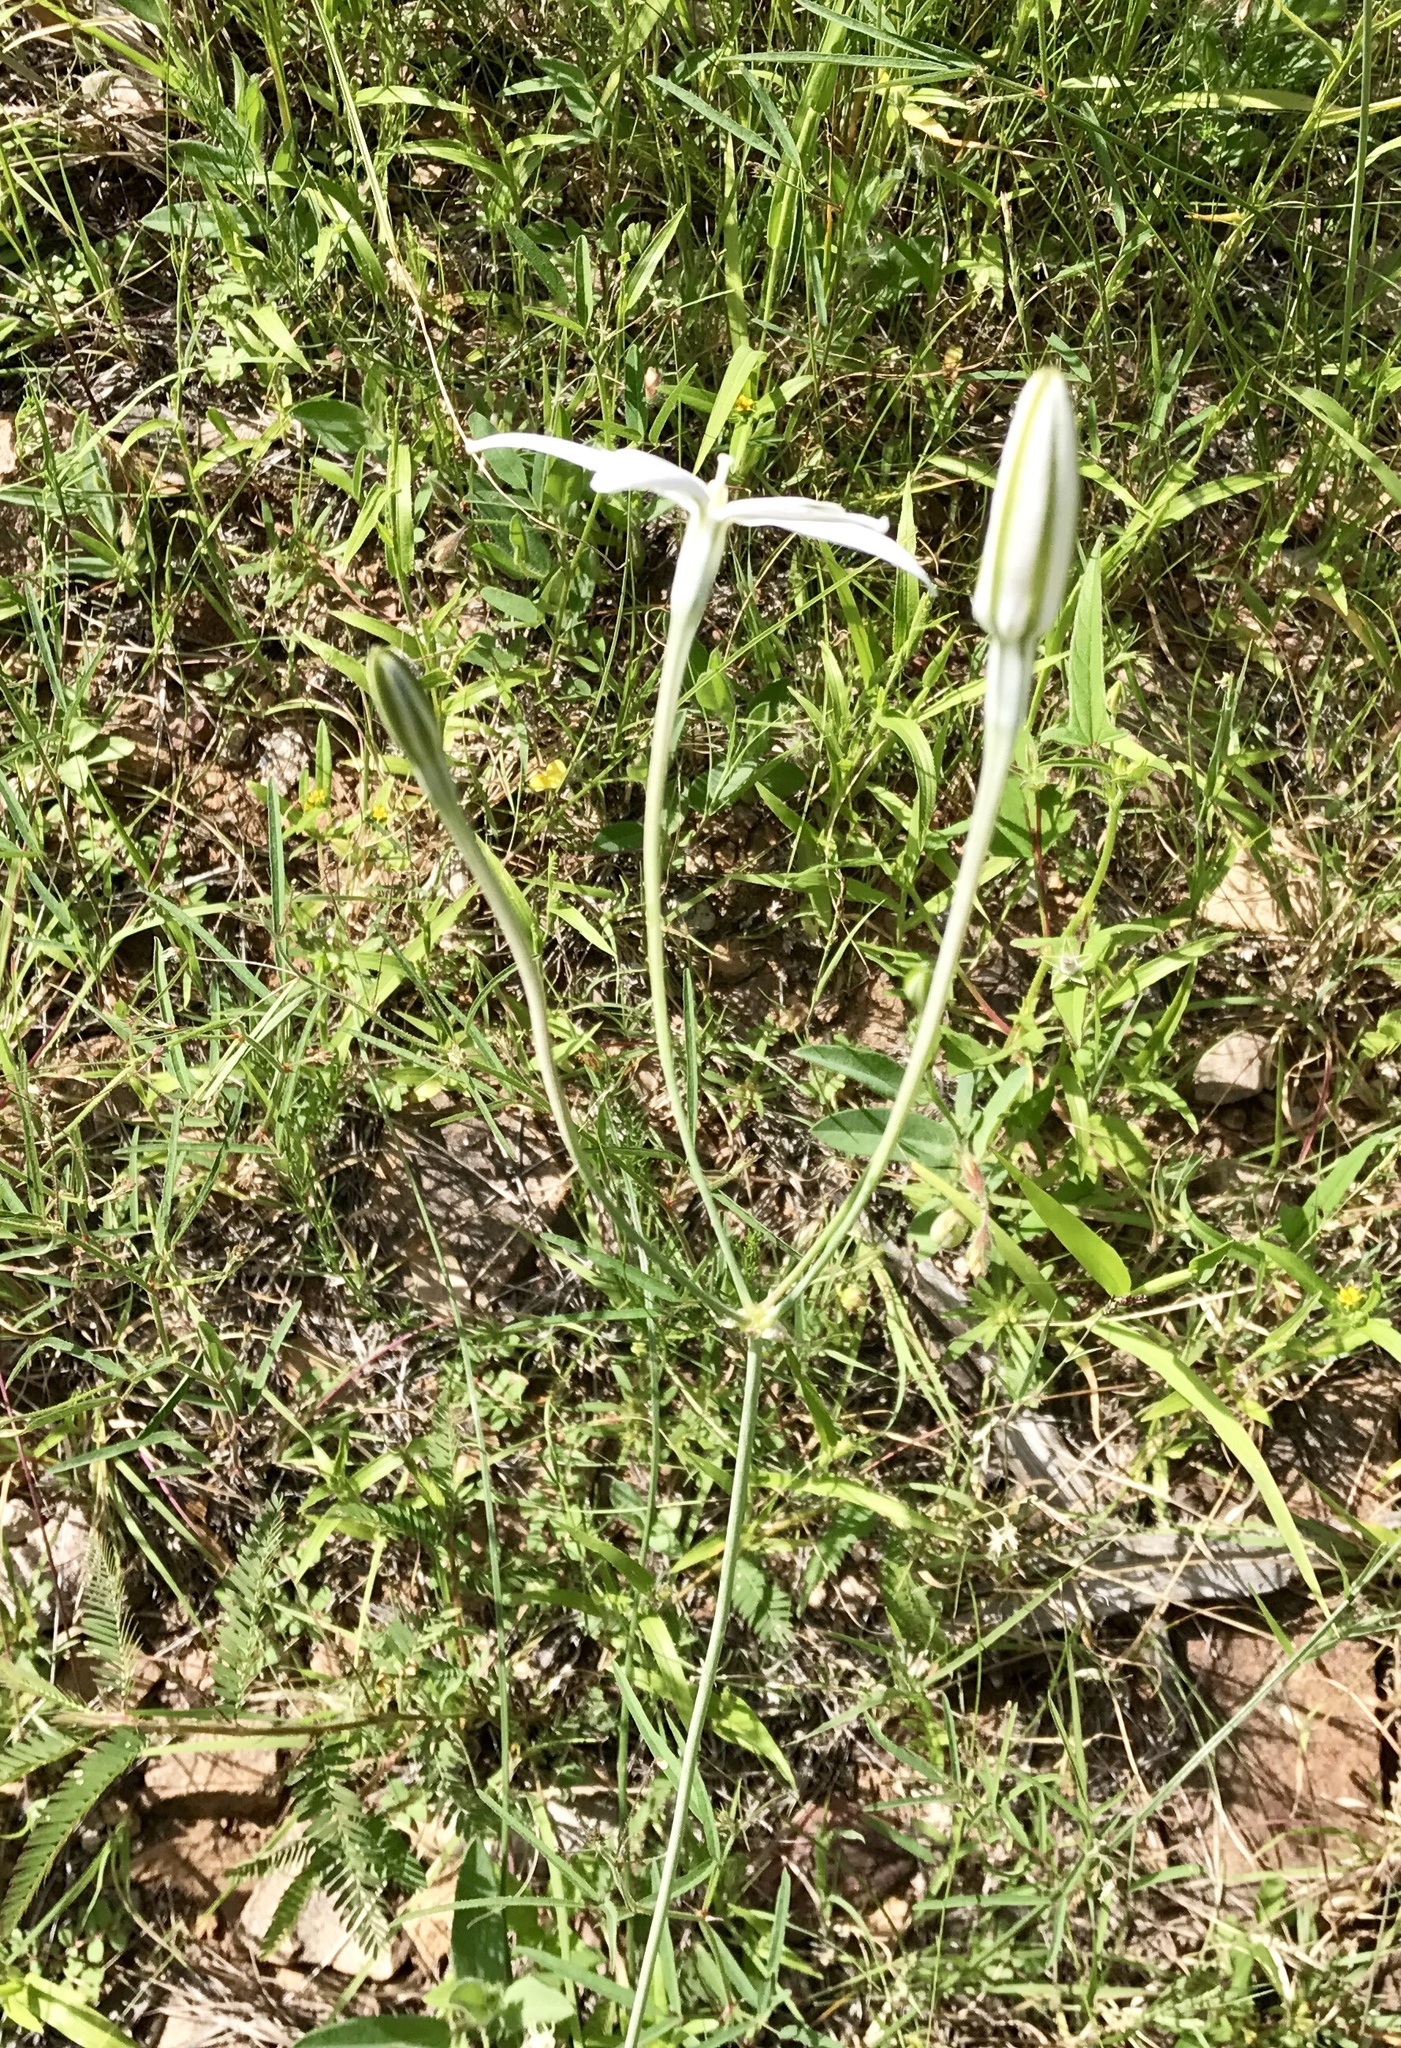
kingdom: Plantae
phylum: Tracheophyta
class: Liliopsida
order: Asparagales
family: Asparagaceae
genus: Milla
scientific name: Milla biflora
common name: Mexican-star
